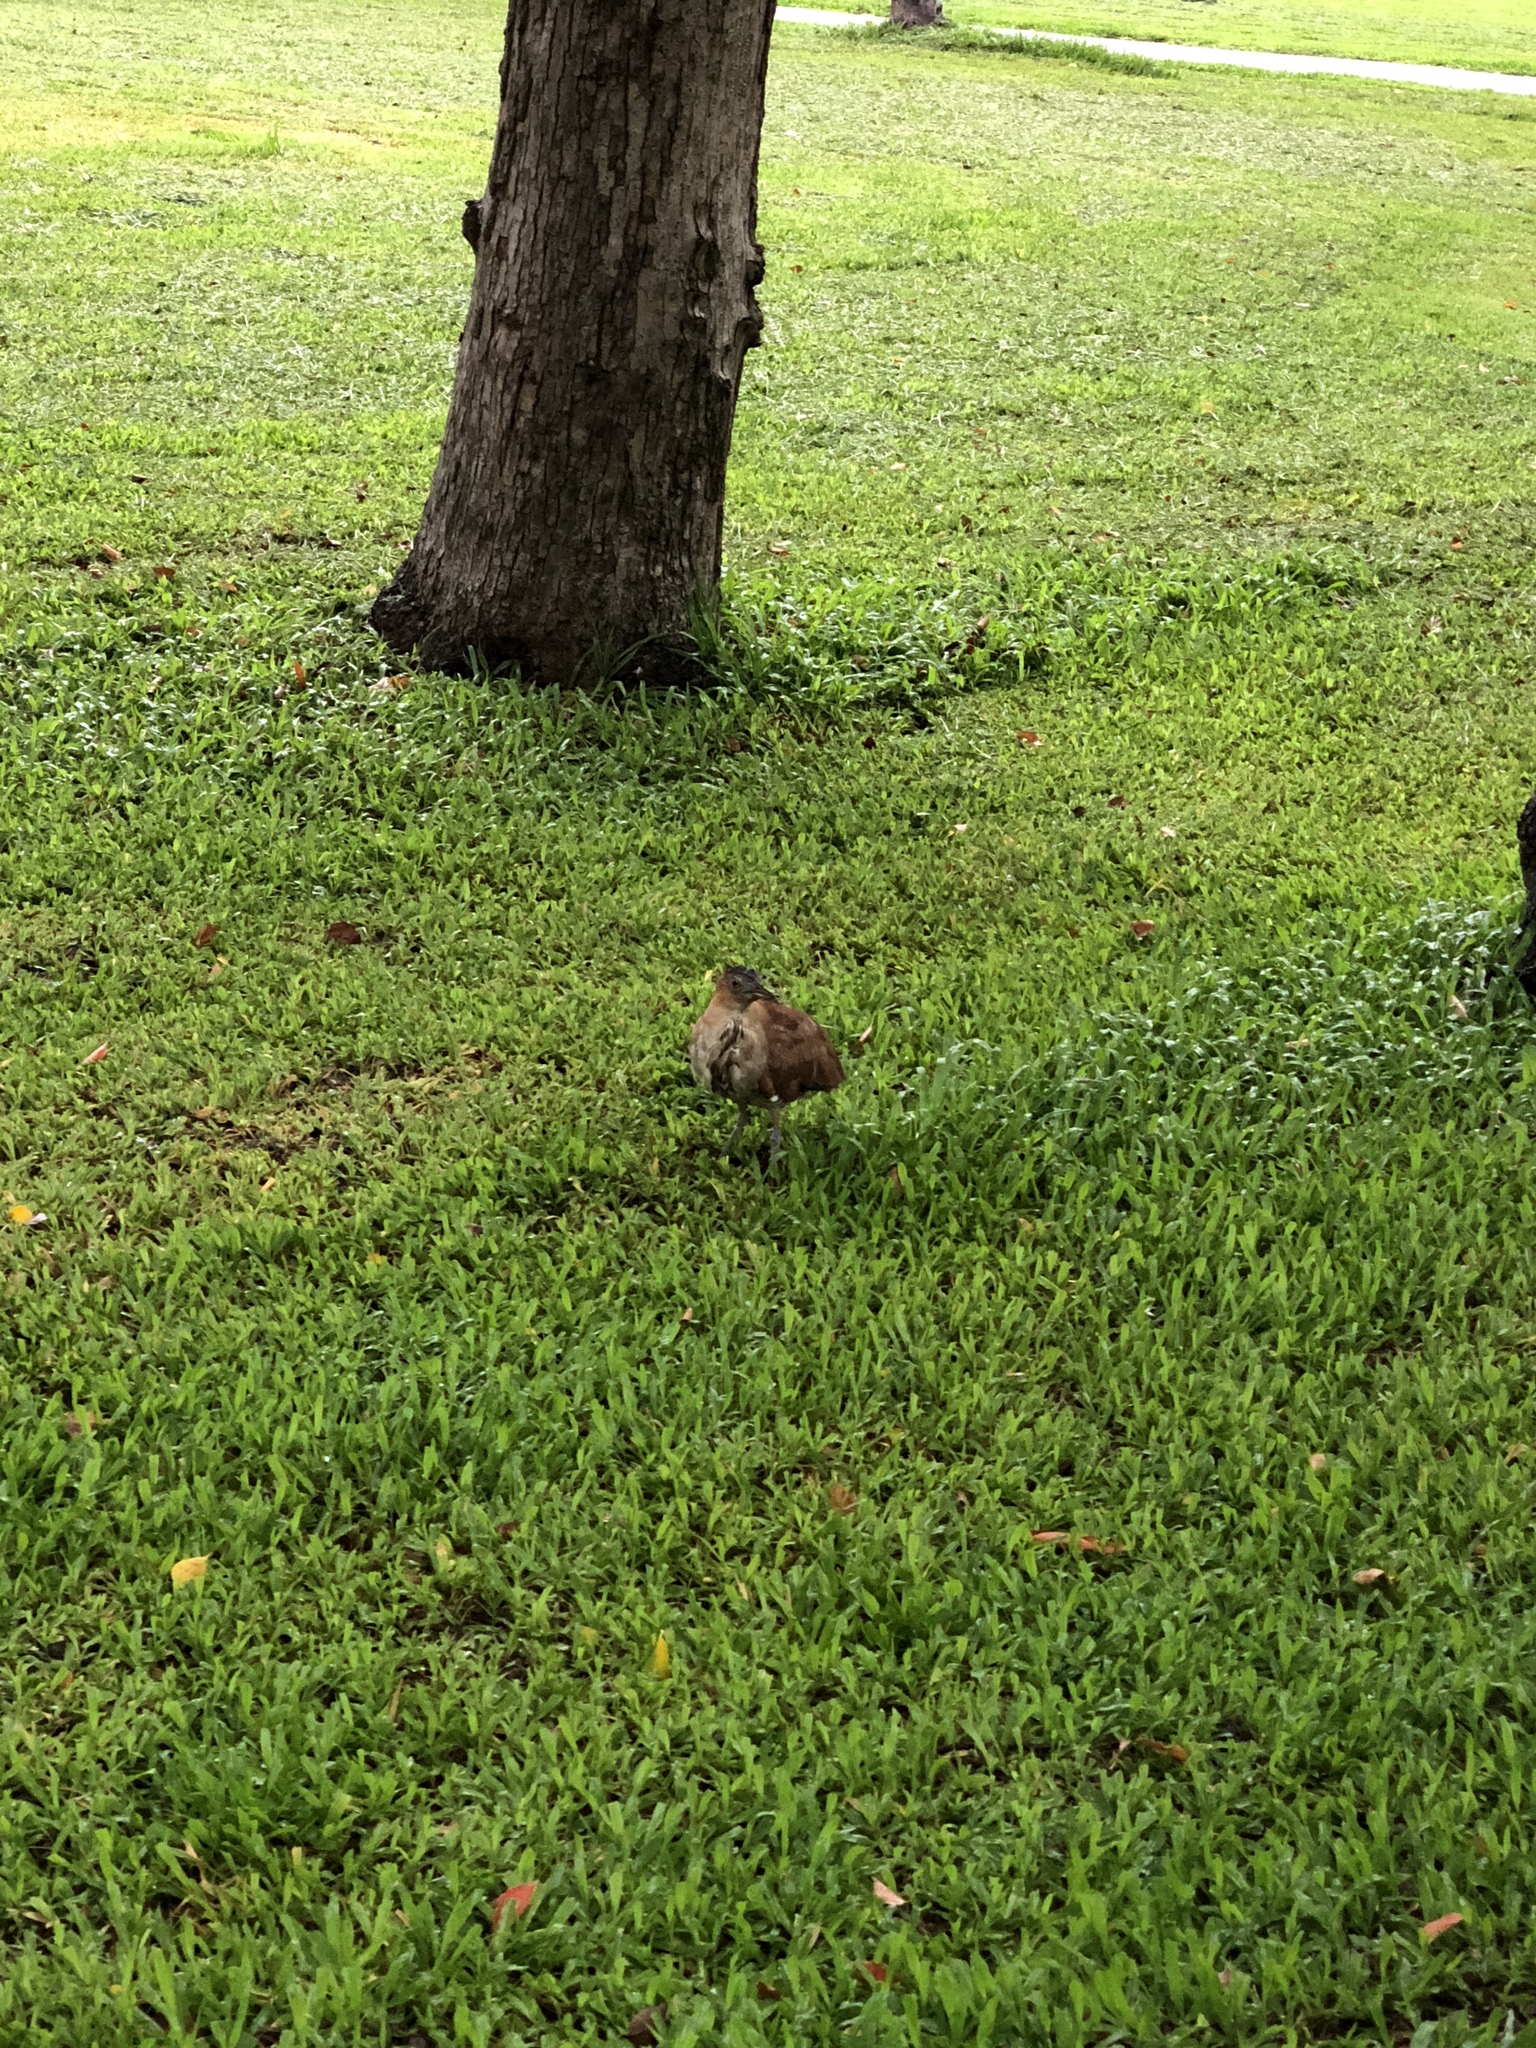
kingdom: Animalia
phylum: Chordata
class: Aves
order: Pelecaniformes
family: Ardeidae
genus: Gorsachius
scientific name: Gorsachius melanolophus
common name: Malayan night heron
